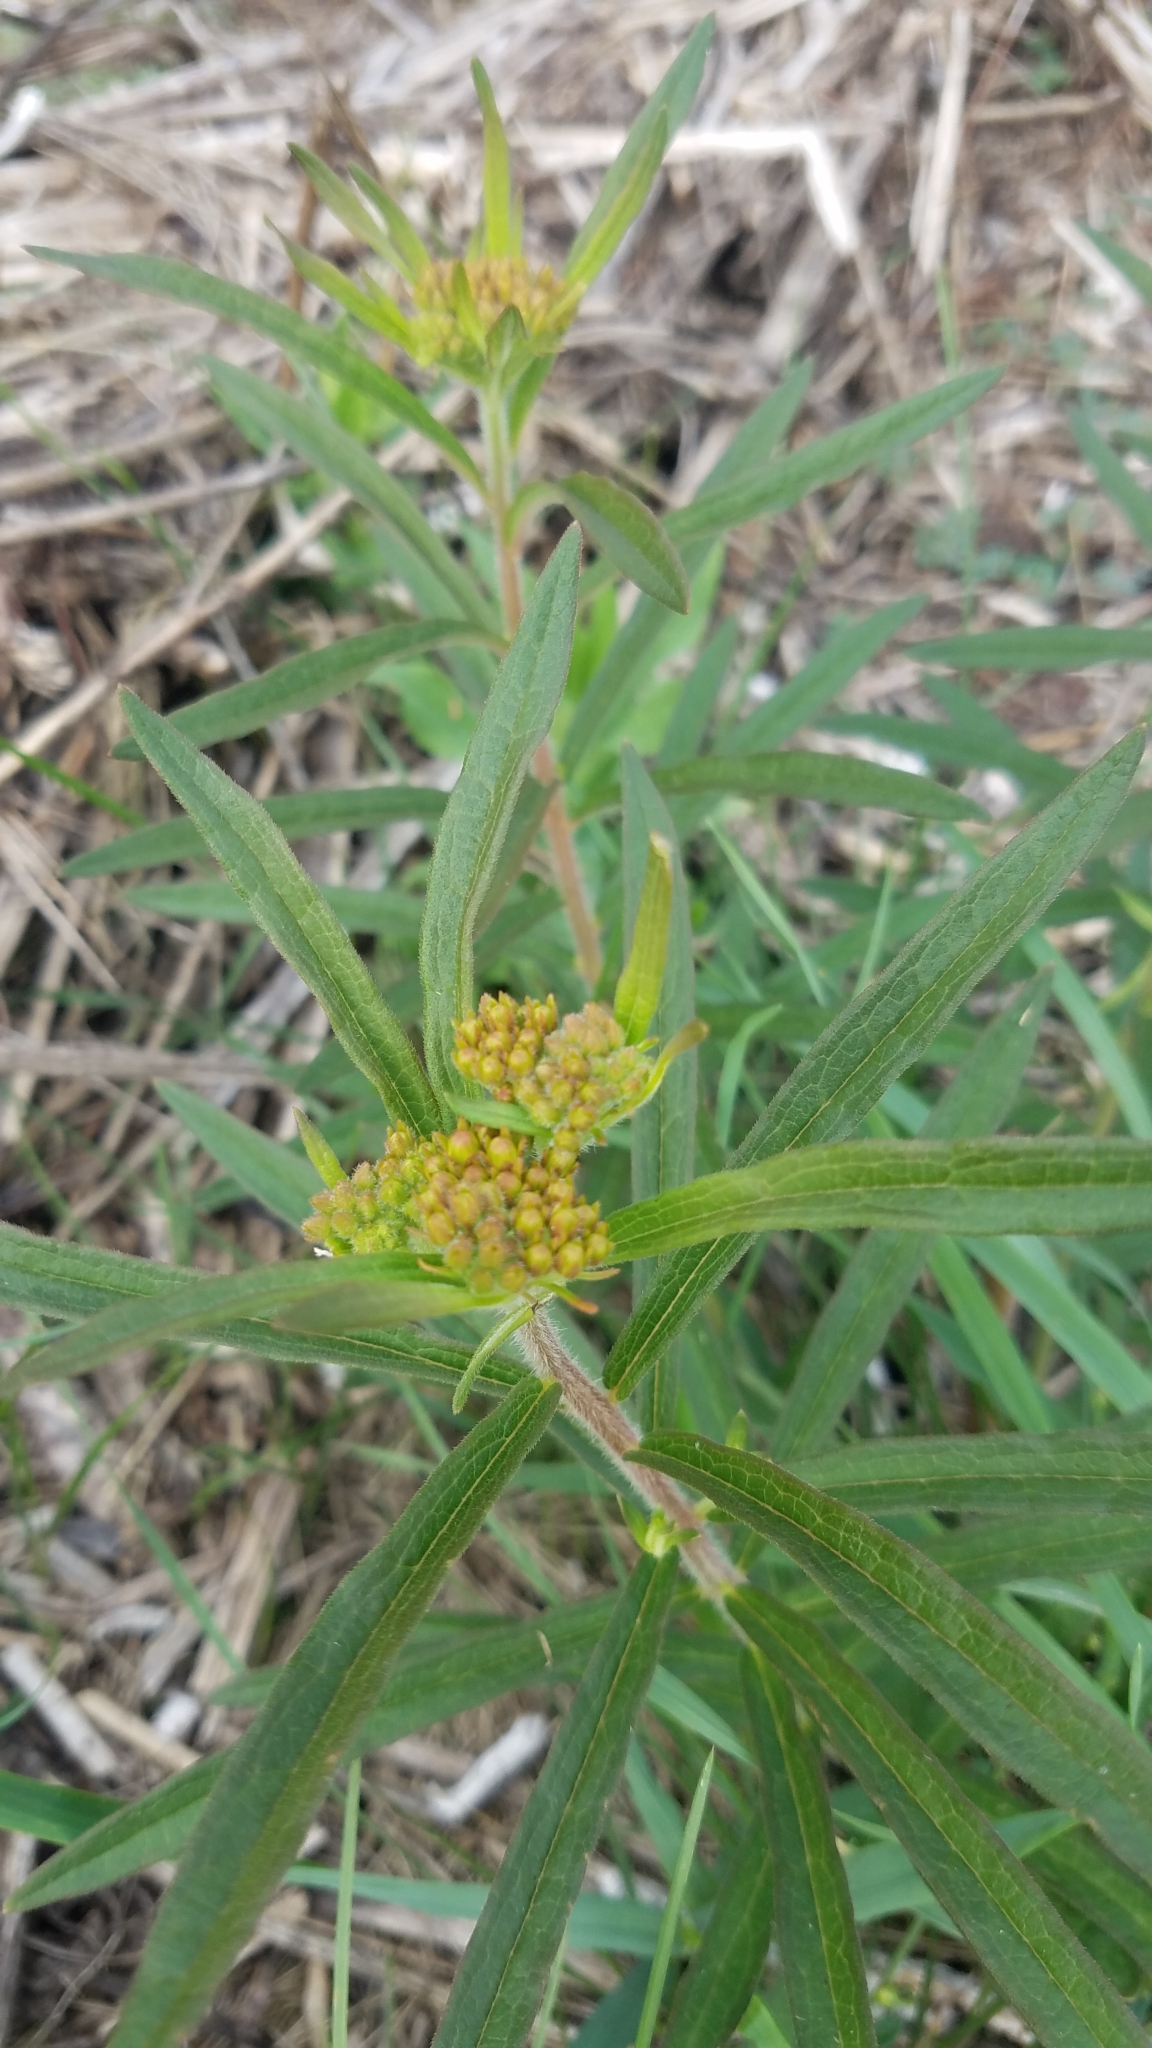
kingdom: Plantae
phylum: Tracheophyta
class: Magnoliopsida
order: Gentianales
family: Apocynaceae
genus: Asclepias
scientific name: Asclepias tuberosa
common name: Butterfly milkweed
